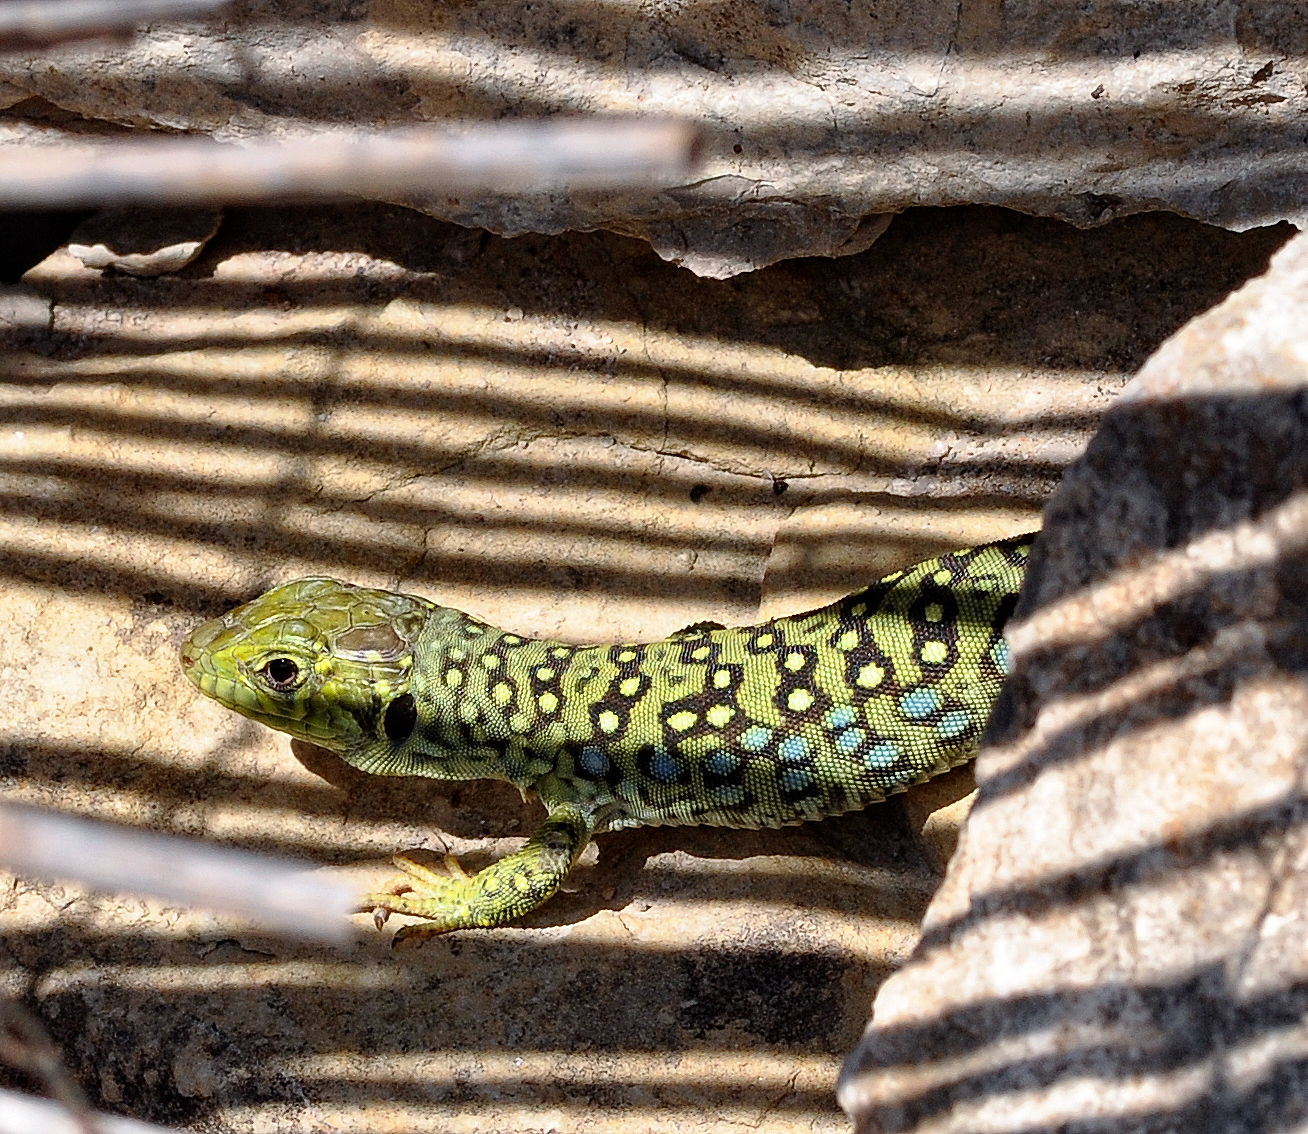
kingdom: Animalia
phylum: Chordata
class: Squamata
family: Lacertidae
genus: Timon
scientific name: Timon lepidus
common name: Ocellated lizard
